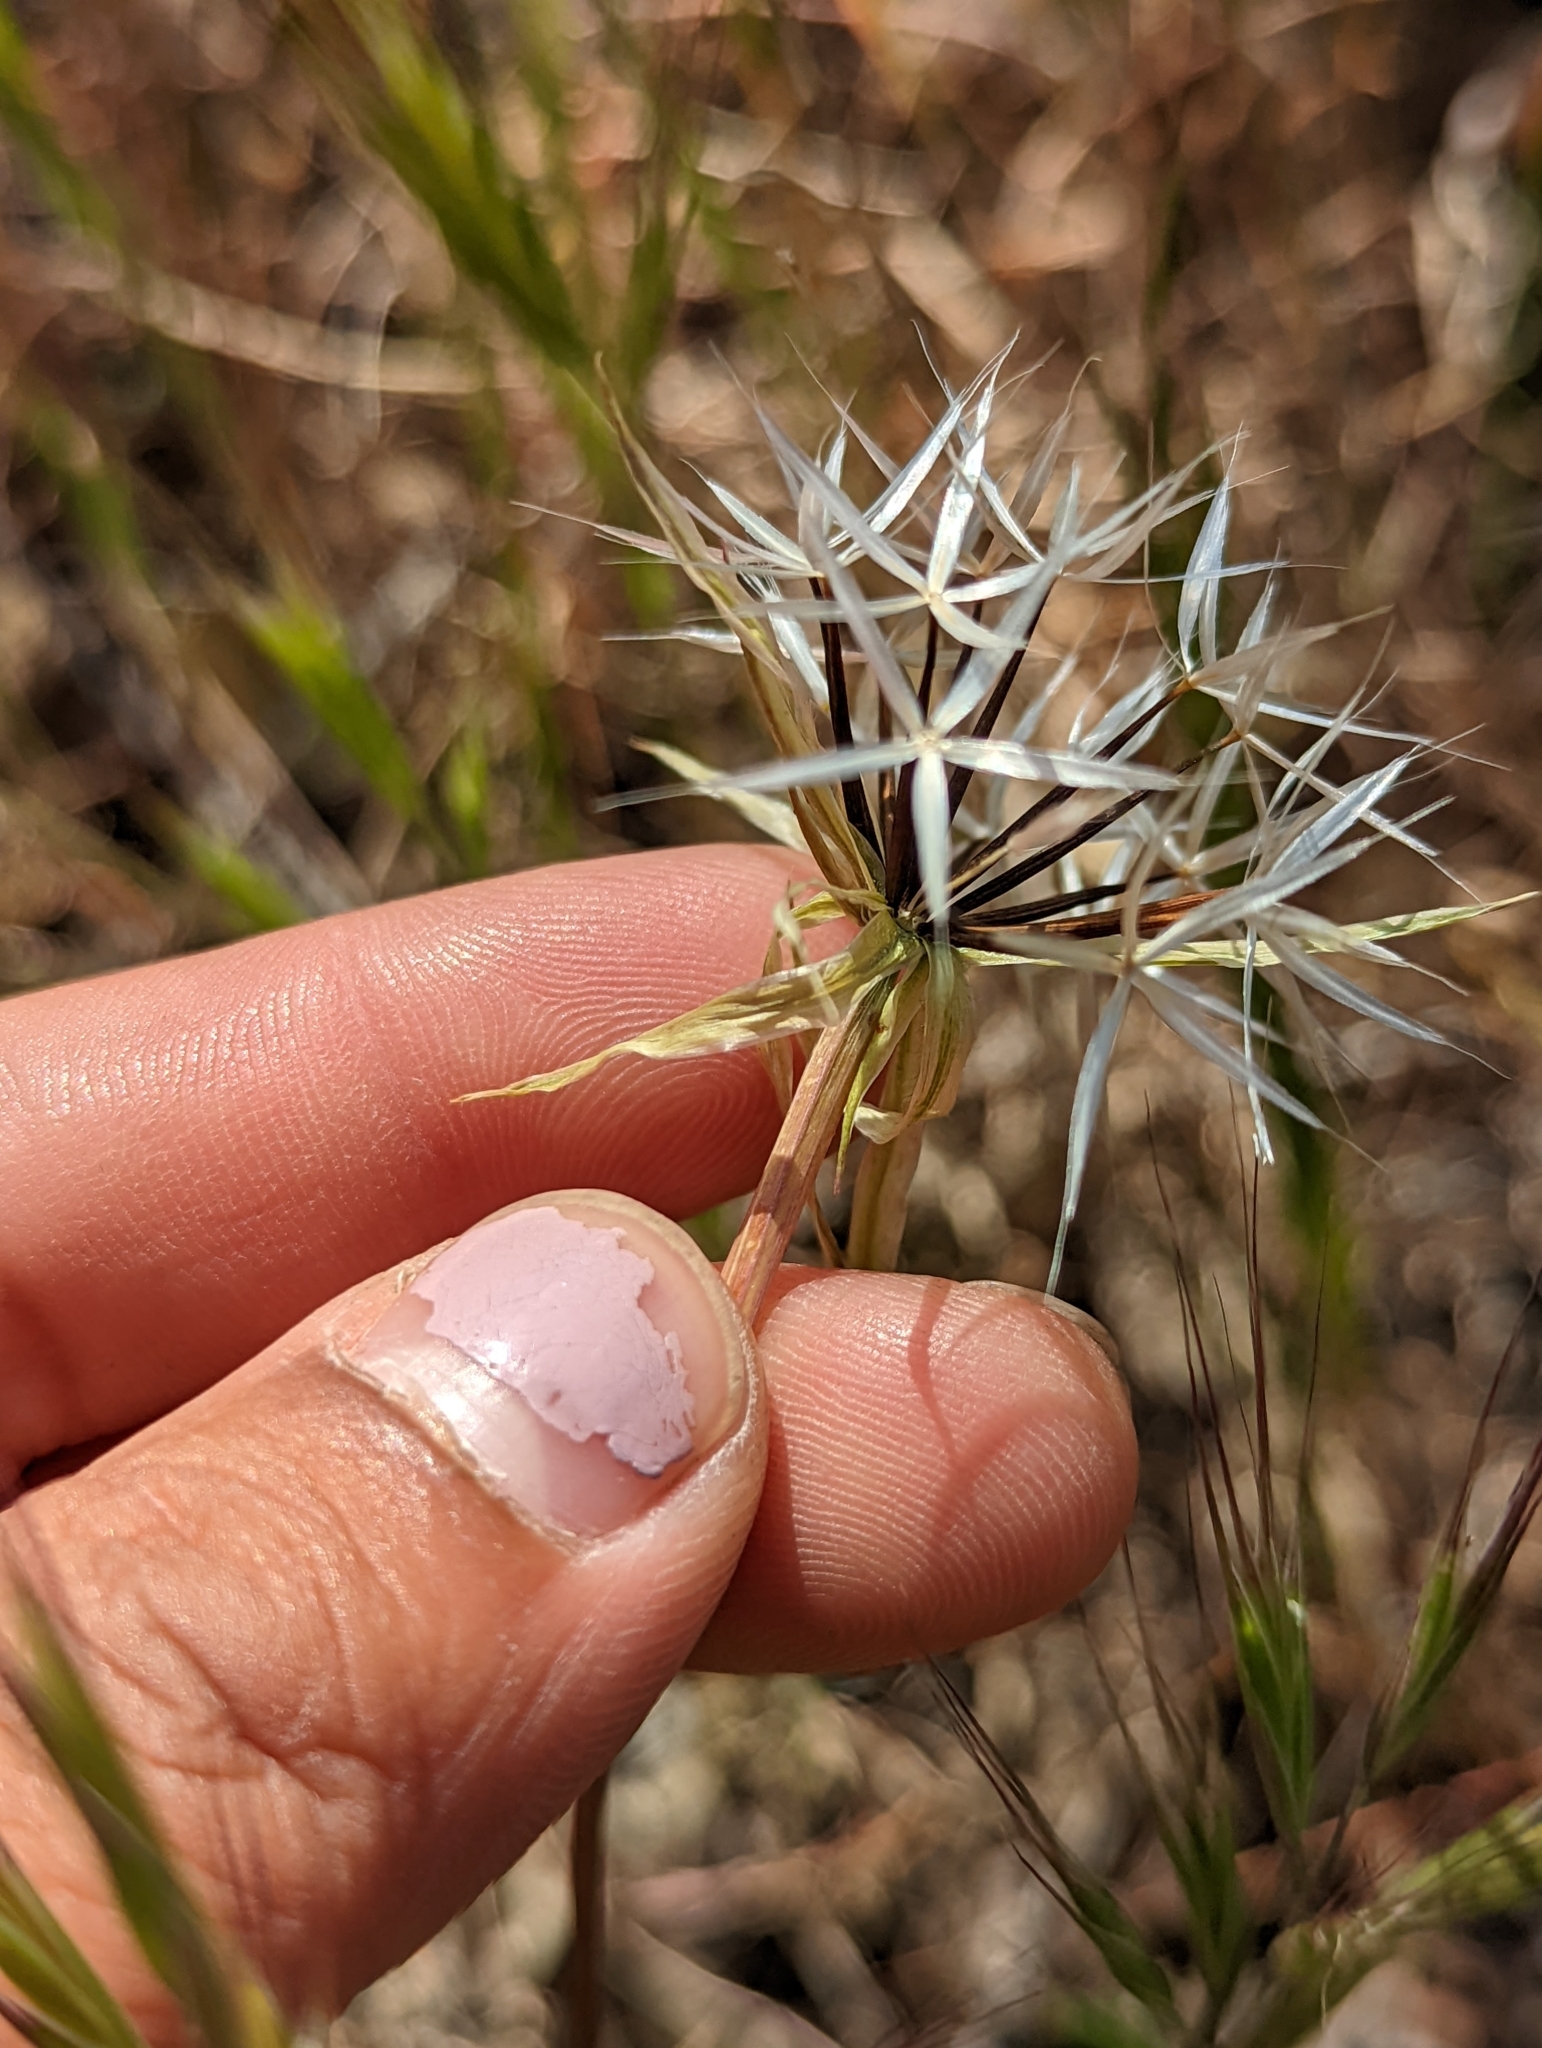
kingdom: Plantae
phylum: Tracheophyta
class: Magnoliopsida
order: Asterales
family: Asteraceae
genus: Microseris
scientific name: Microseris lindleyi
